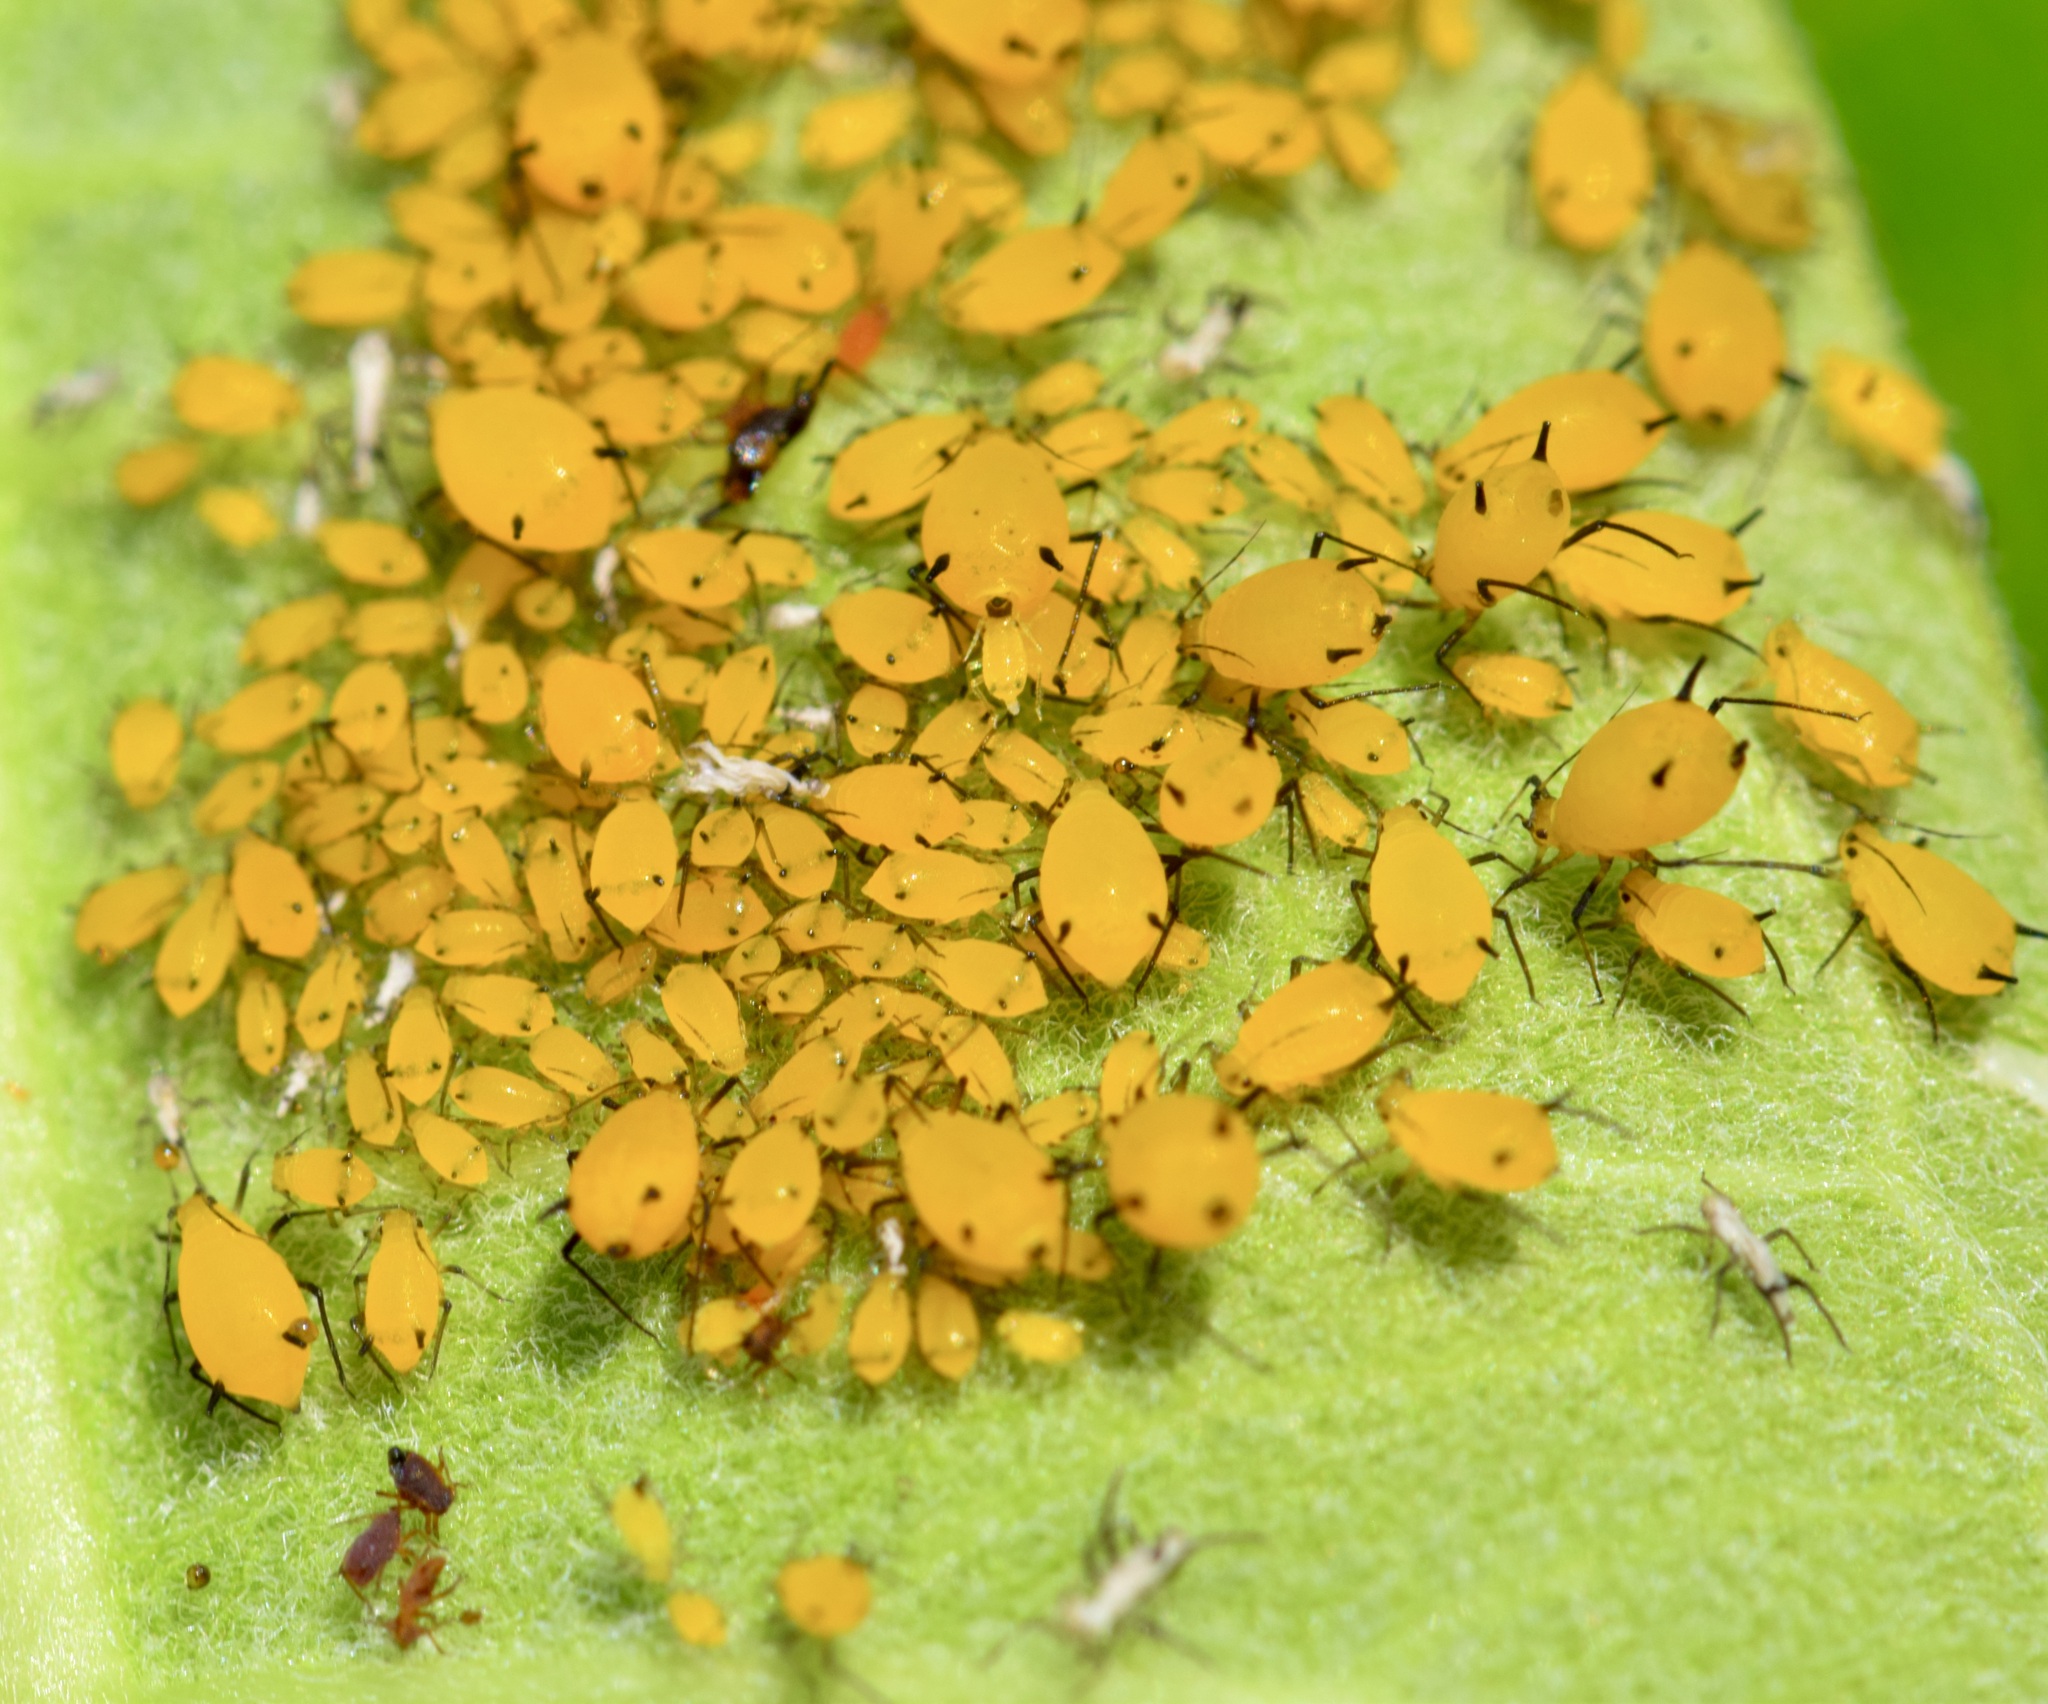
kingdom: Animalia
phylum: Arthropoda
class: Insecta
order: Hemiptera
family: Aphididae
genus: Aphis
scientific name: Aphis nerii
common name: Oleander aphid
